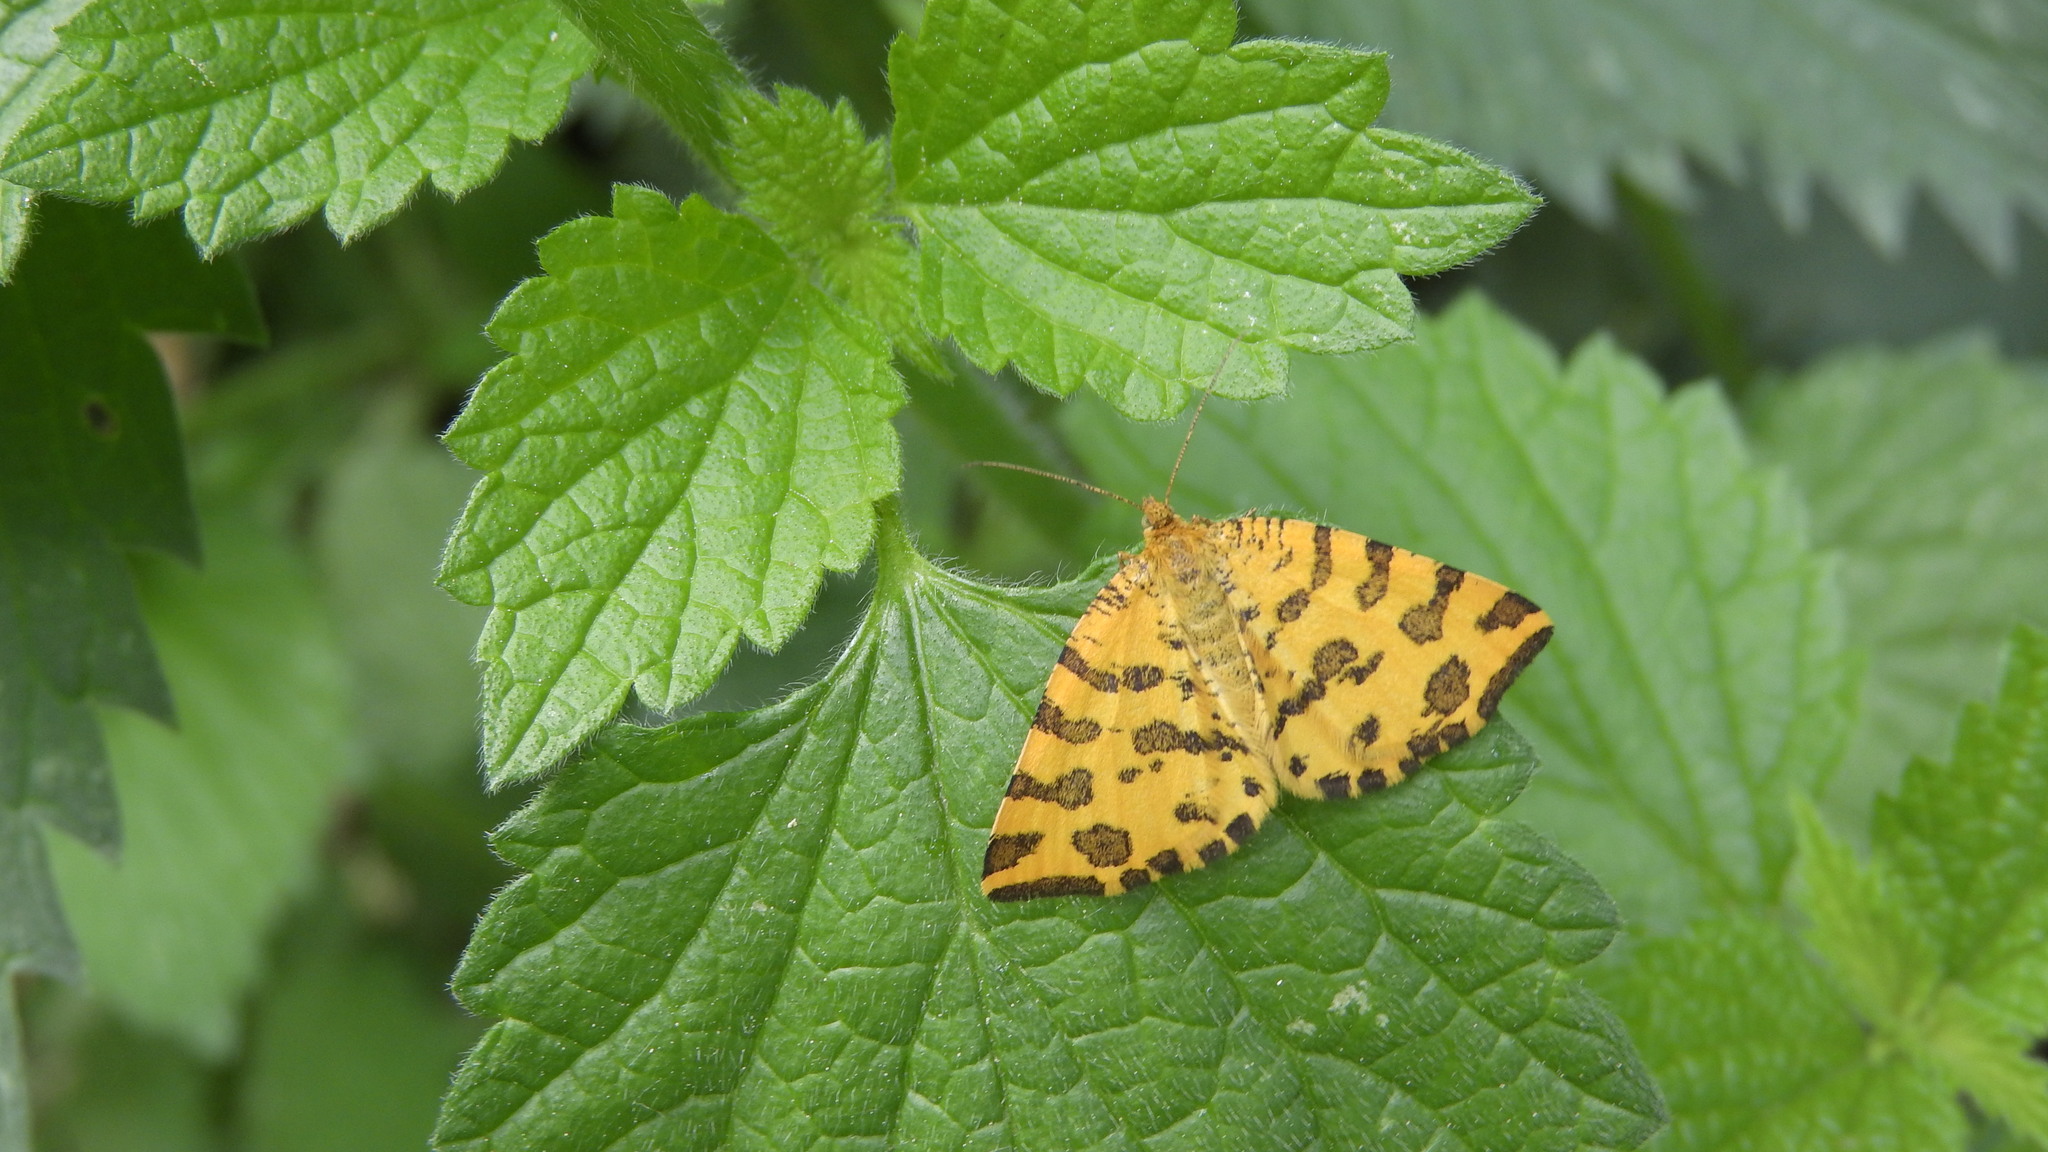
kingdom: Animalia
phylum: Arthropoda
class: Insecta
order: Lepidoptera
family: Geometridae
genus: Pseudopanthera
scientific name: Pseudopanthera macularia
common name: Speckled yellow
